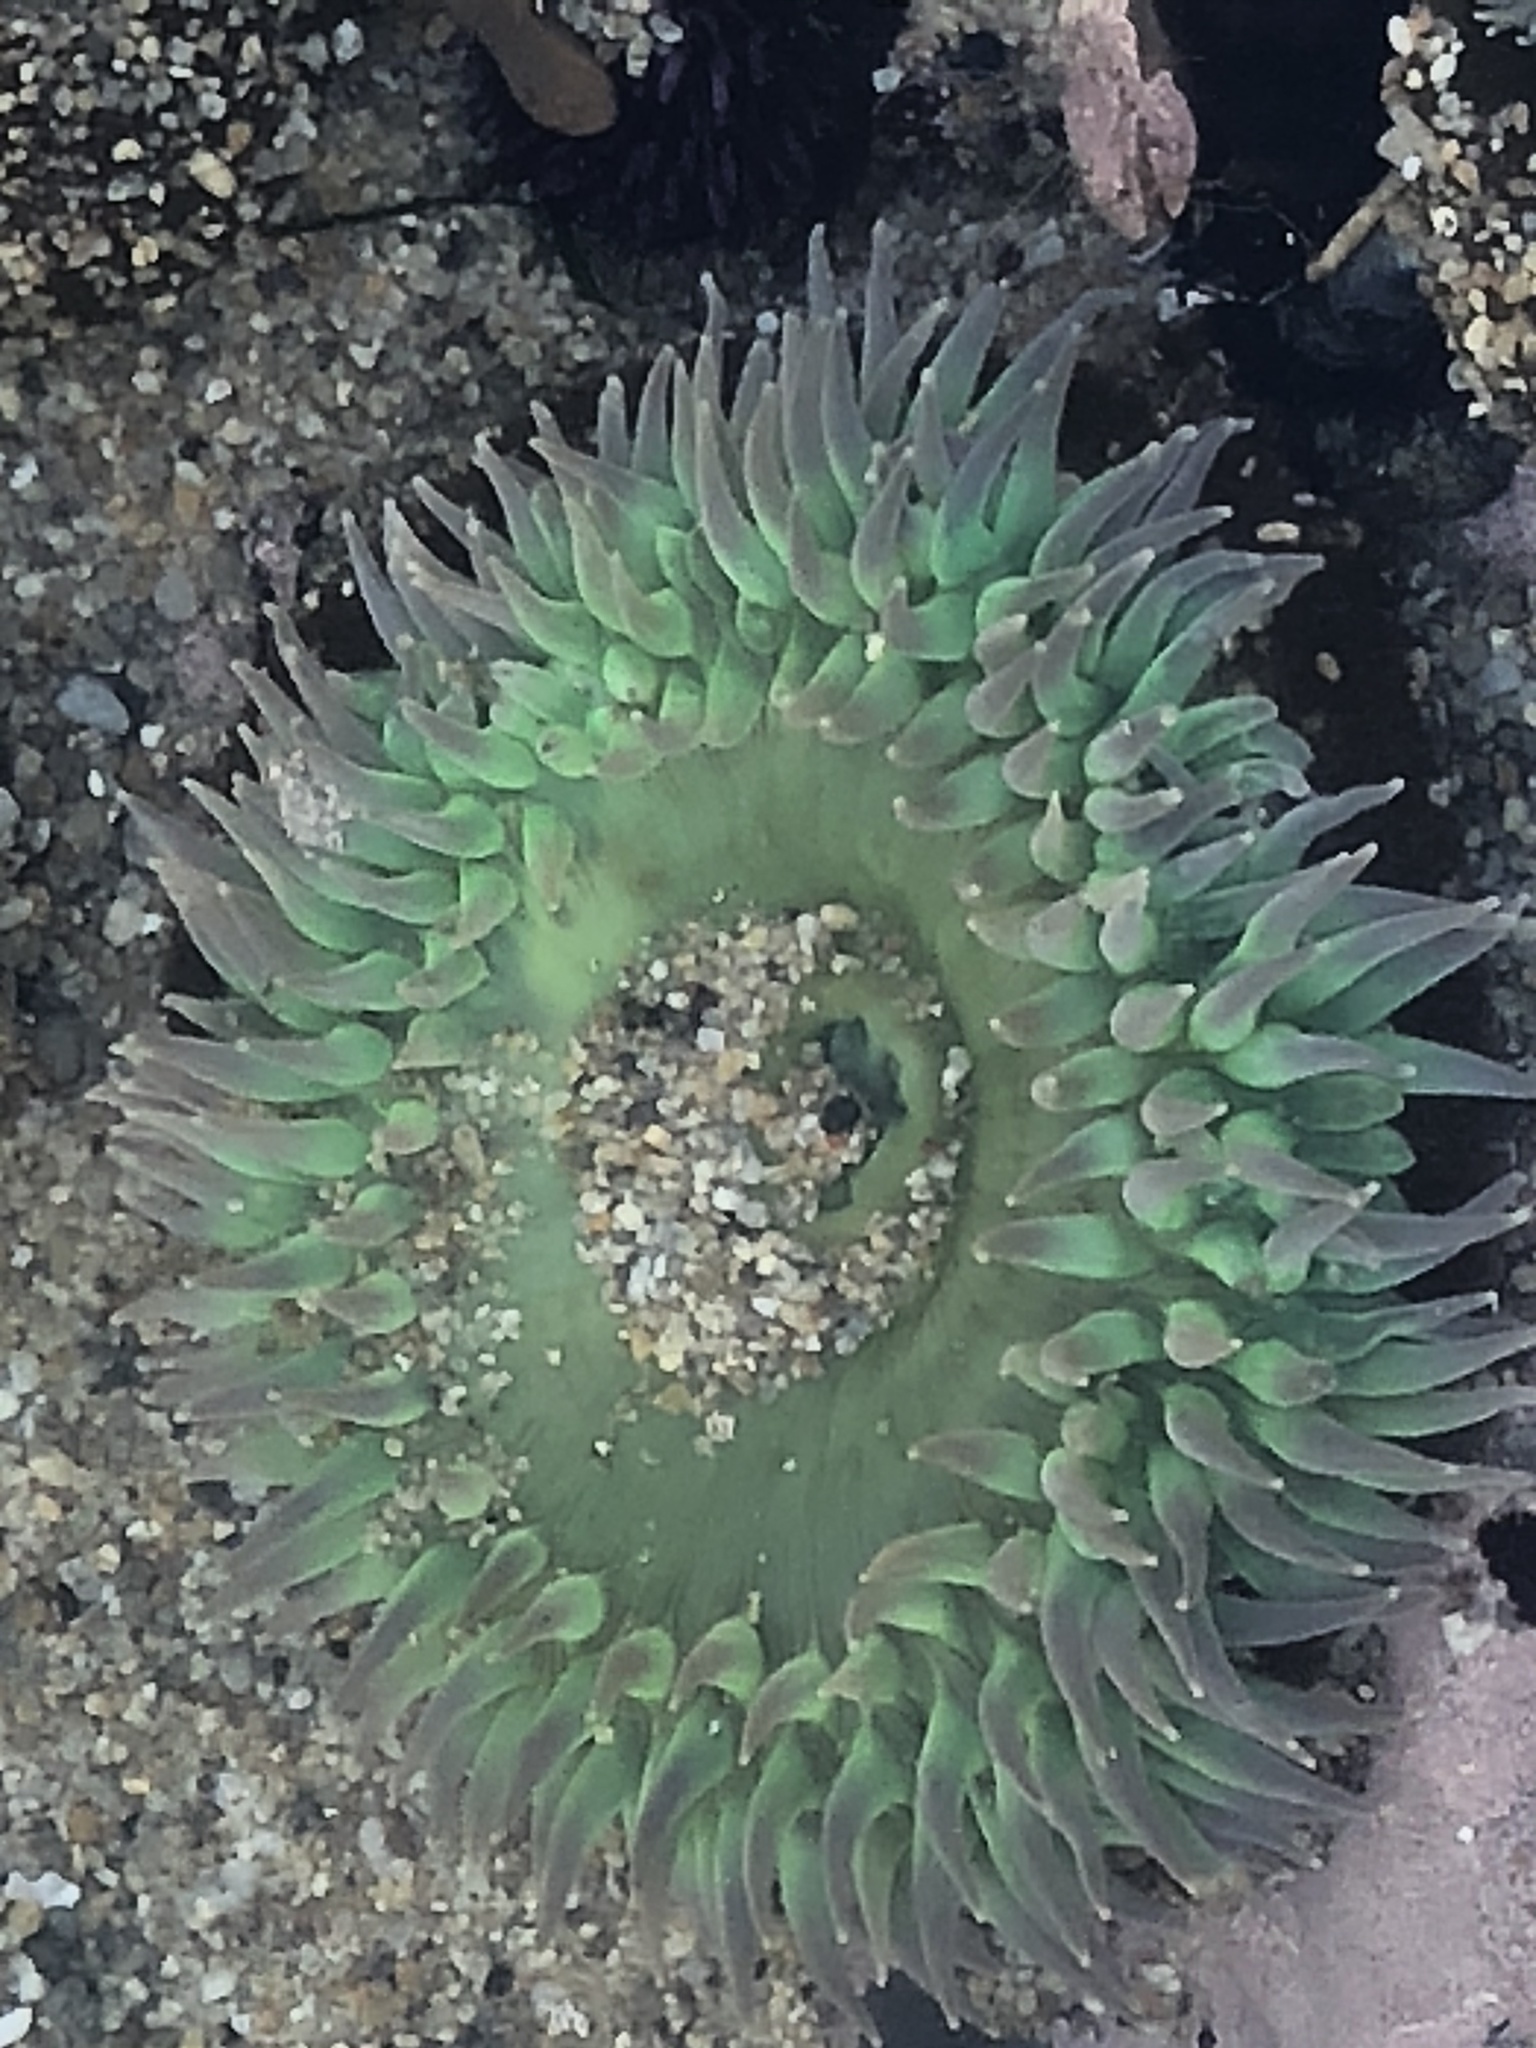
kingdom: Animalia
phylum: Cnidaria
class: Anthozoa
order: Actiniaria
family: Actiniidae
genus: Anthopleura
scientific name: Anthopleura xanthogrammica
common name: Giant green anemone
